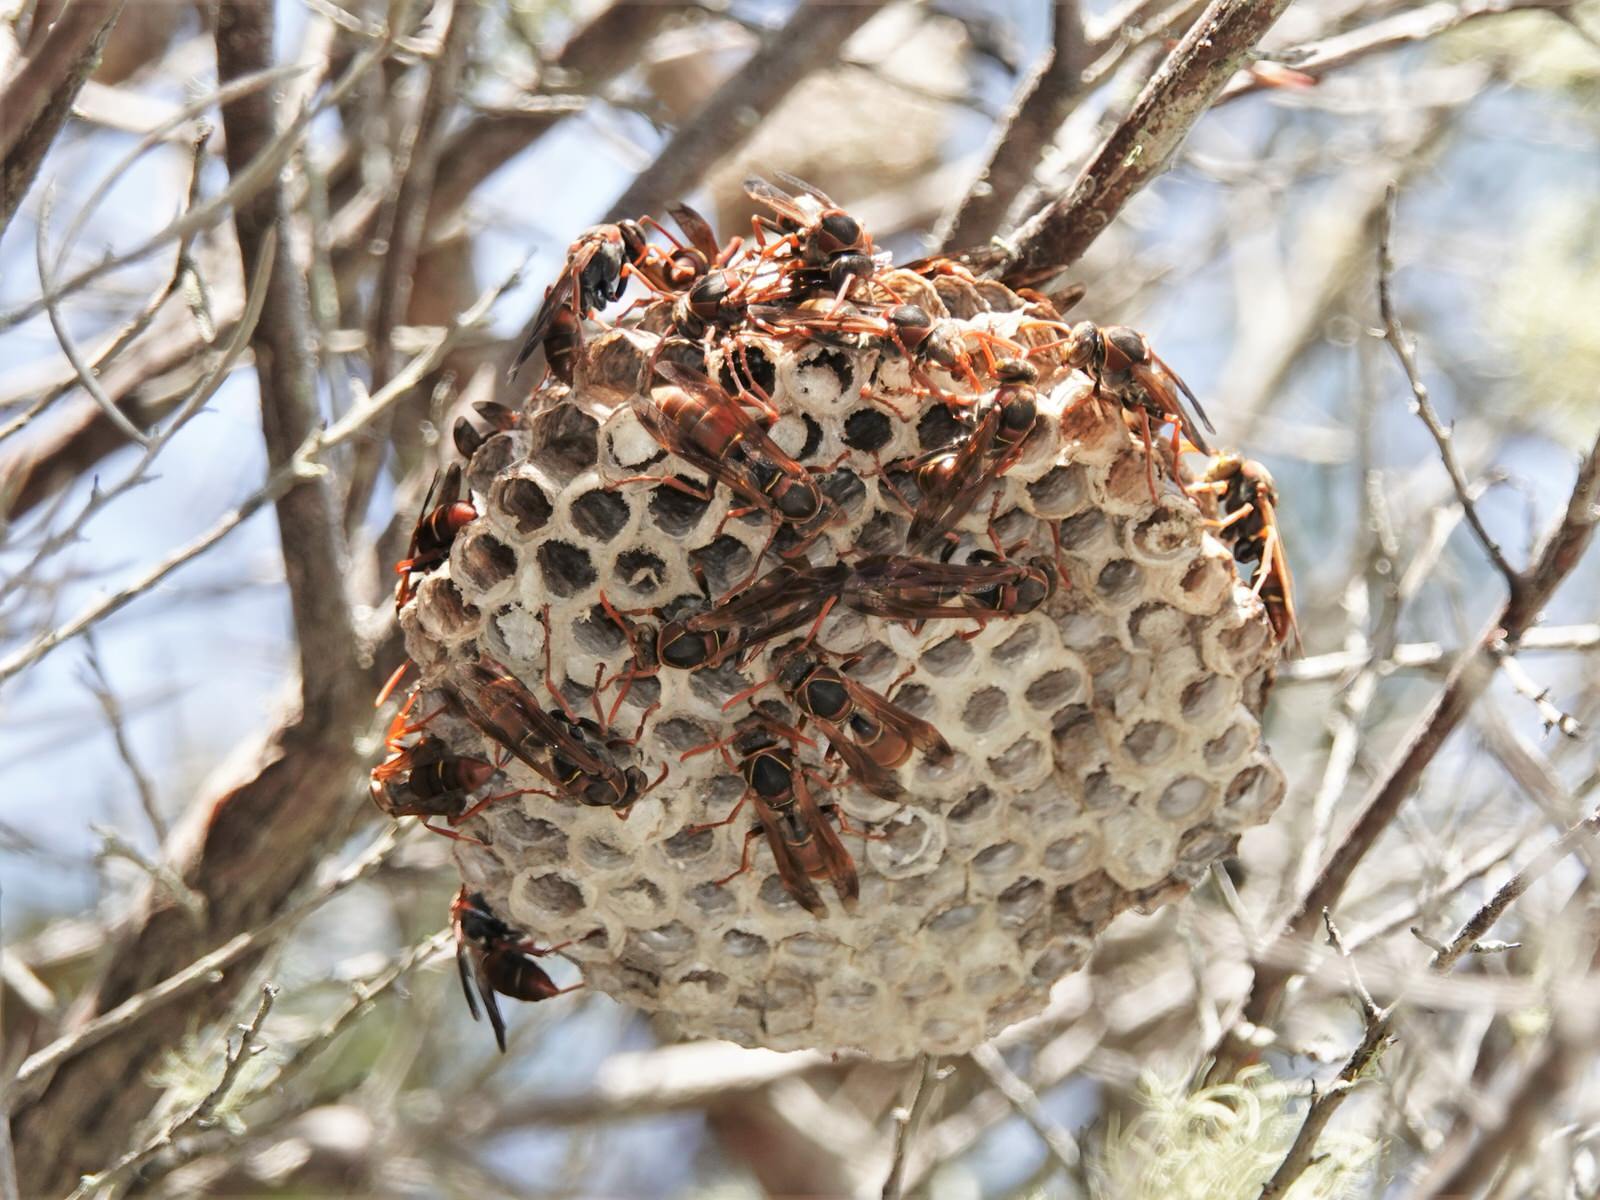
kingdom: Animalia
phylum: Arthropoda
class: Insecta
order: Hymenoptera
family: Eumenidae
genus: Polistes
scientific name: Polistes humilis
